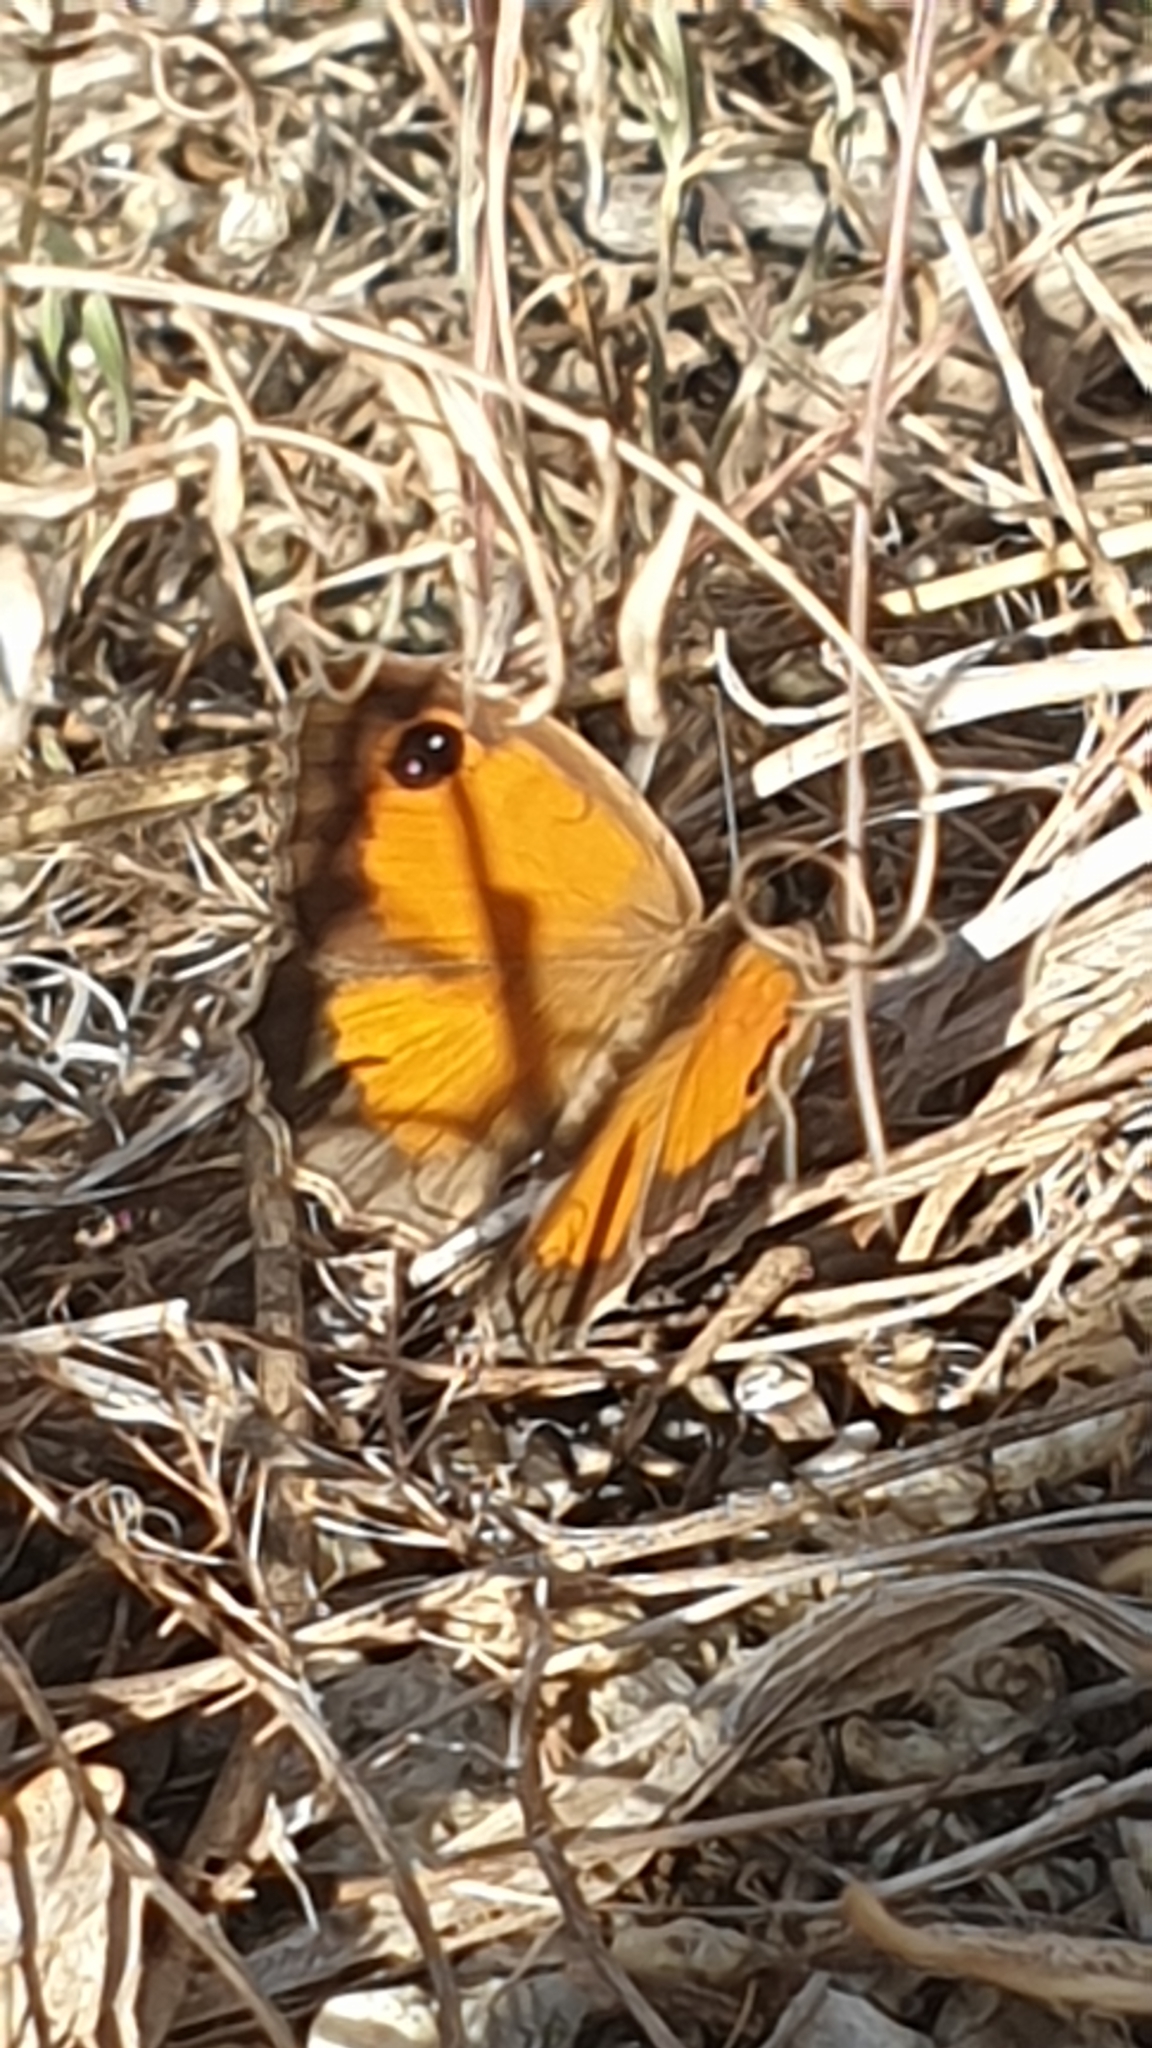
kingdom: Animalia
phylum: Arthropoda
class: Insecta
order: Lepidoptera
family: Nymphalidae
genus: Pyronia
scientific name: Pyronia cecilia
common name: Southern gatekeeper
